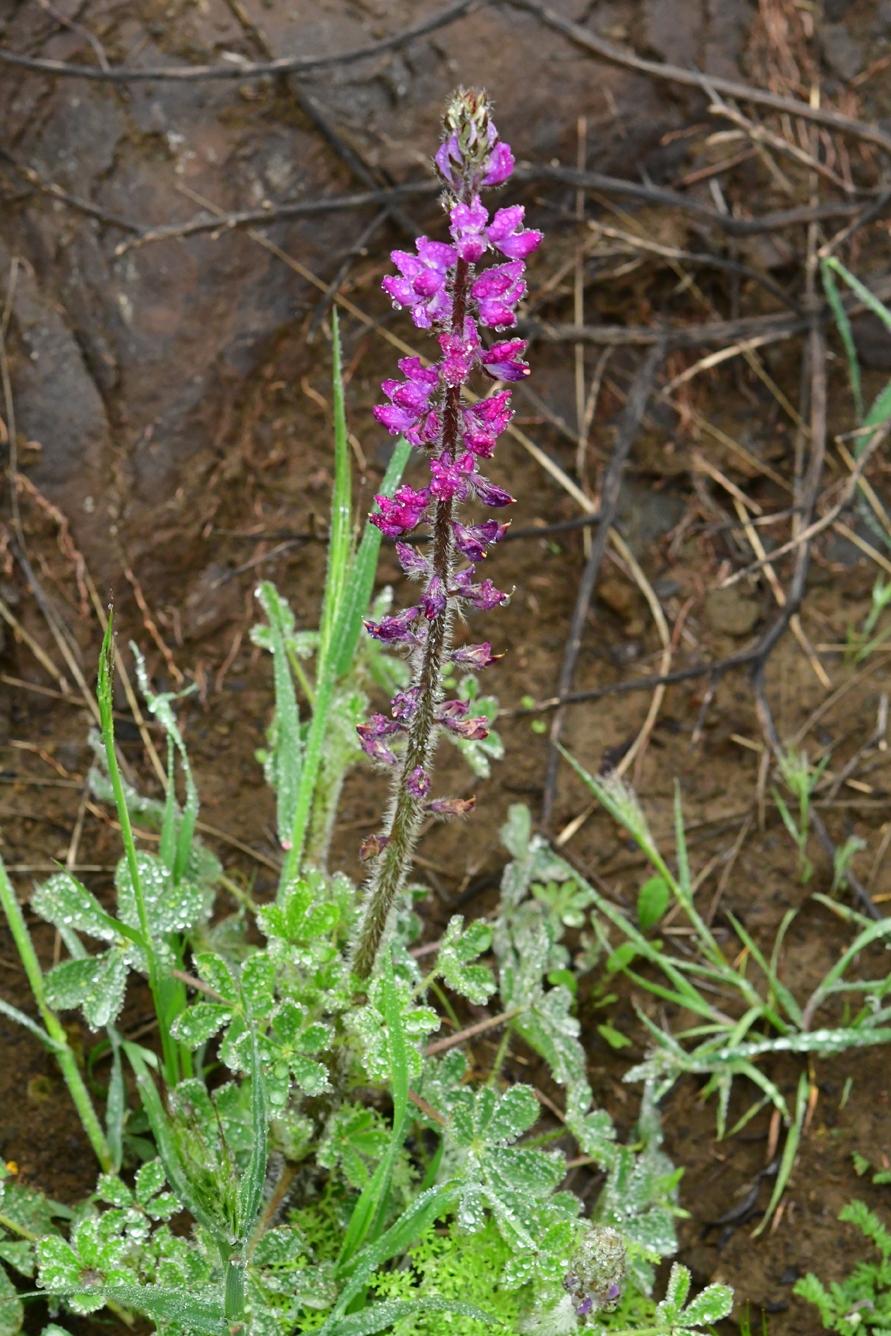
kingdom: Plantae
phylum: Tracheophyta
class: Magnoliopsida
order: Fabales
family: Fabaceae
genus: Lupinus
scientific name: Lupinus hirsutissimus
